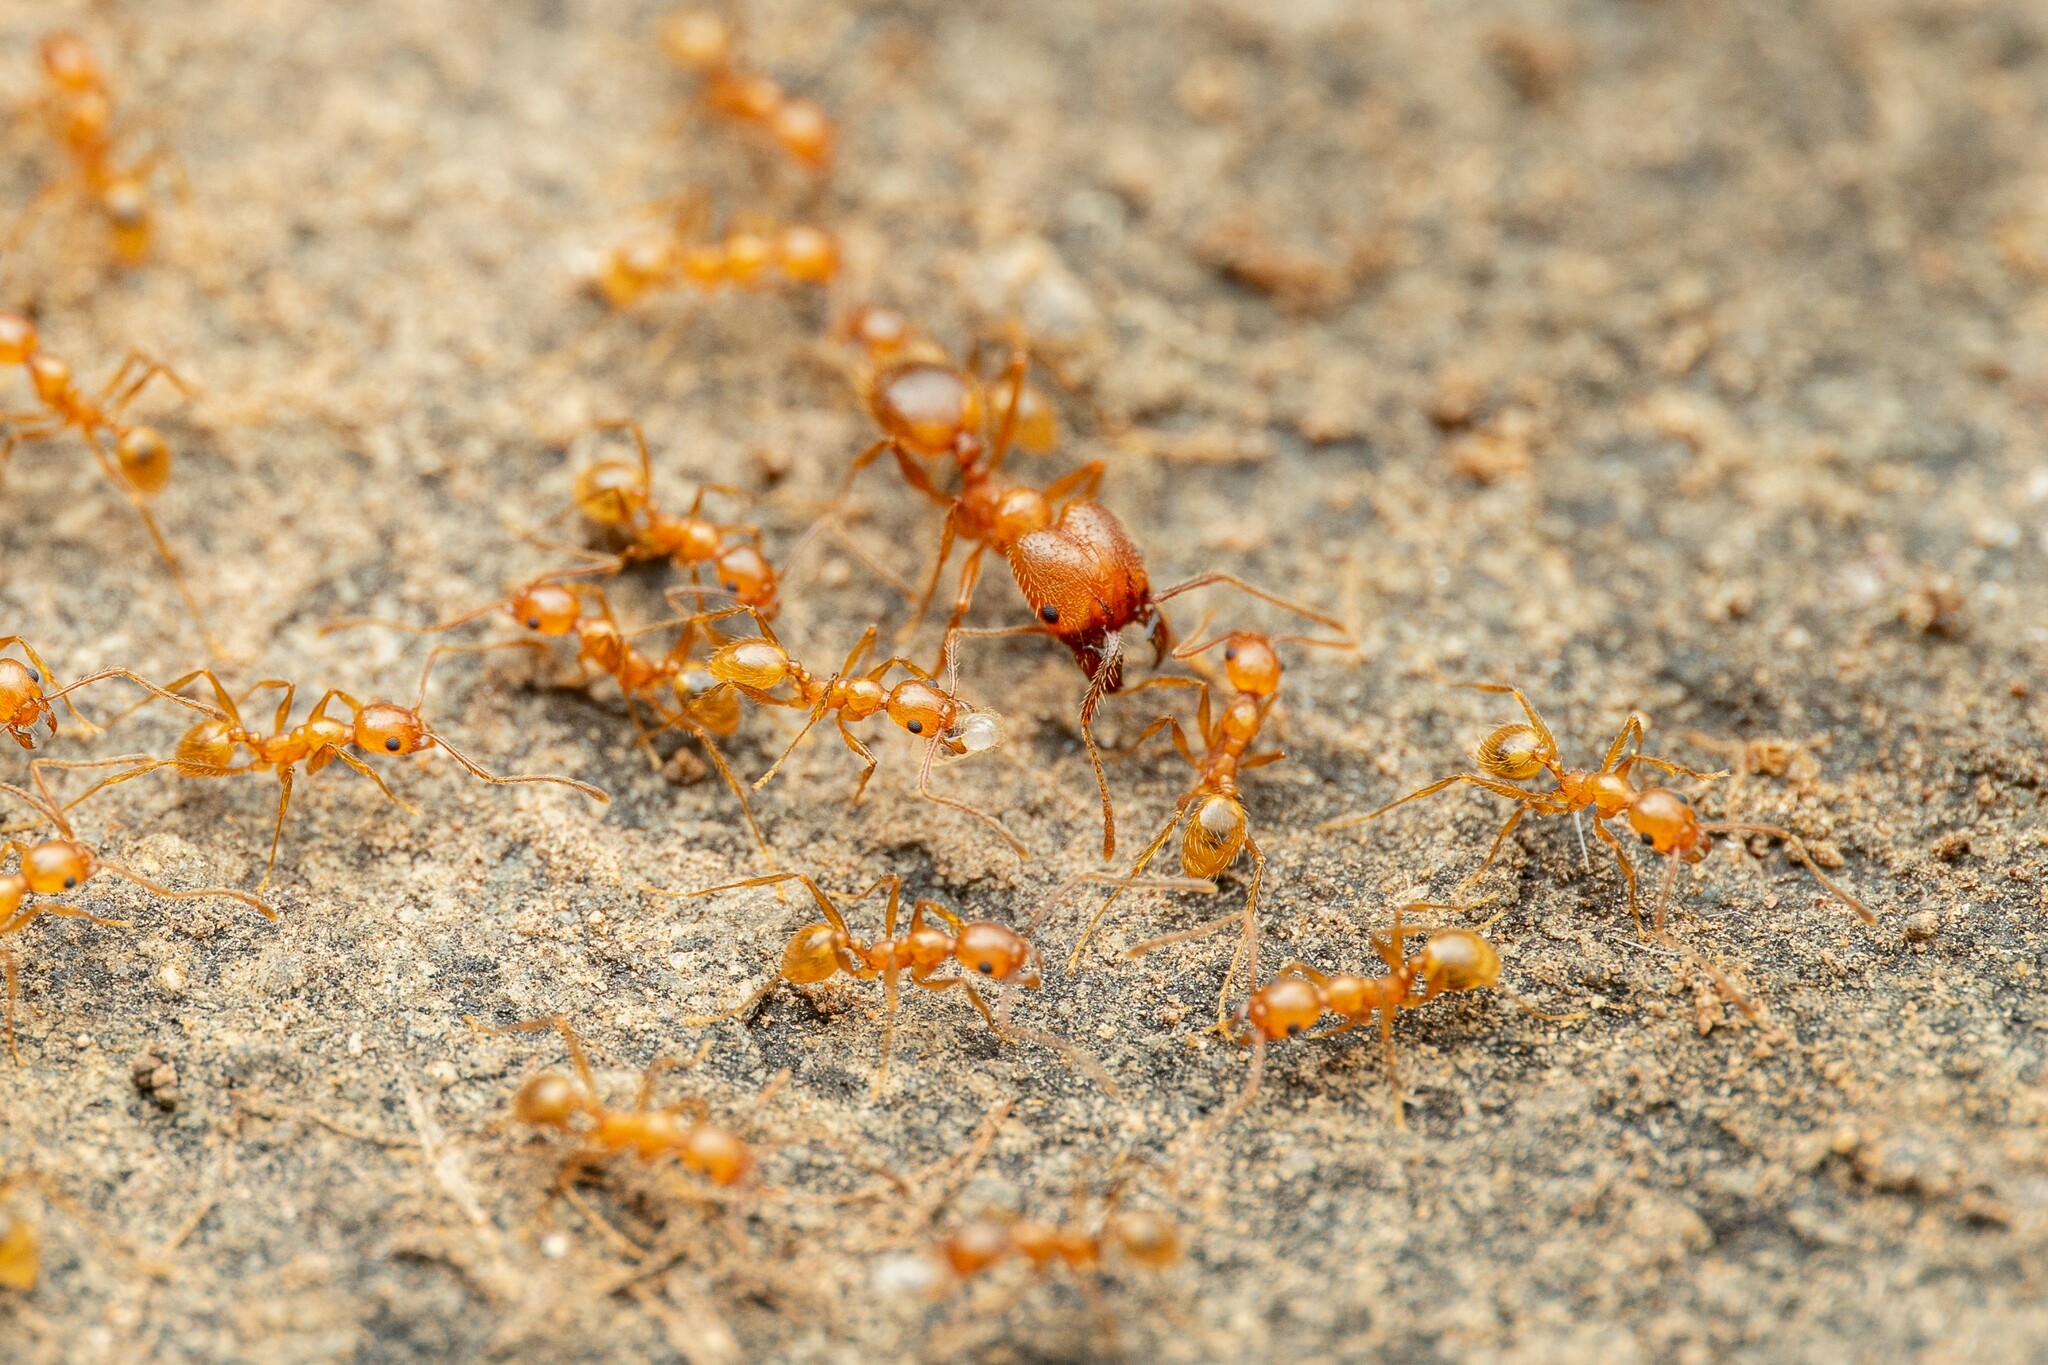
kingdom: Animalia
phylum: Arthropoda
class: Insecta
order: Hymenoptera
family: Formicidae
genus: Pheidole
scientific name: Pheidole hyatti
